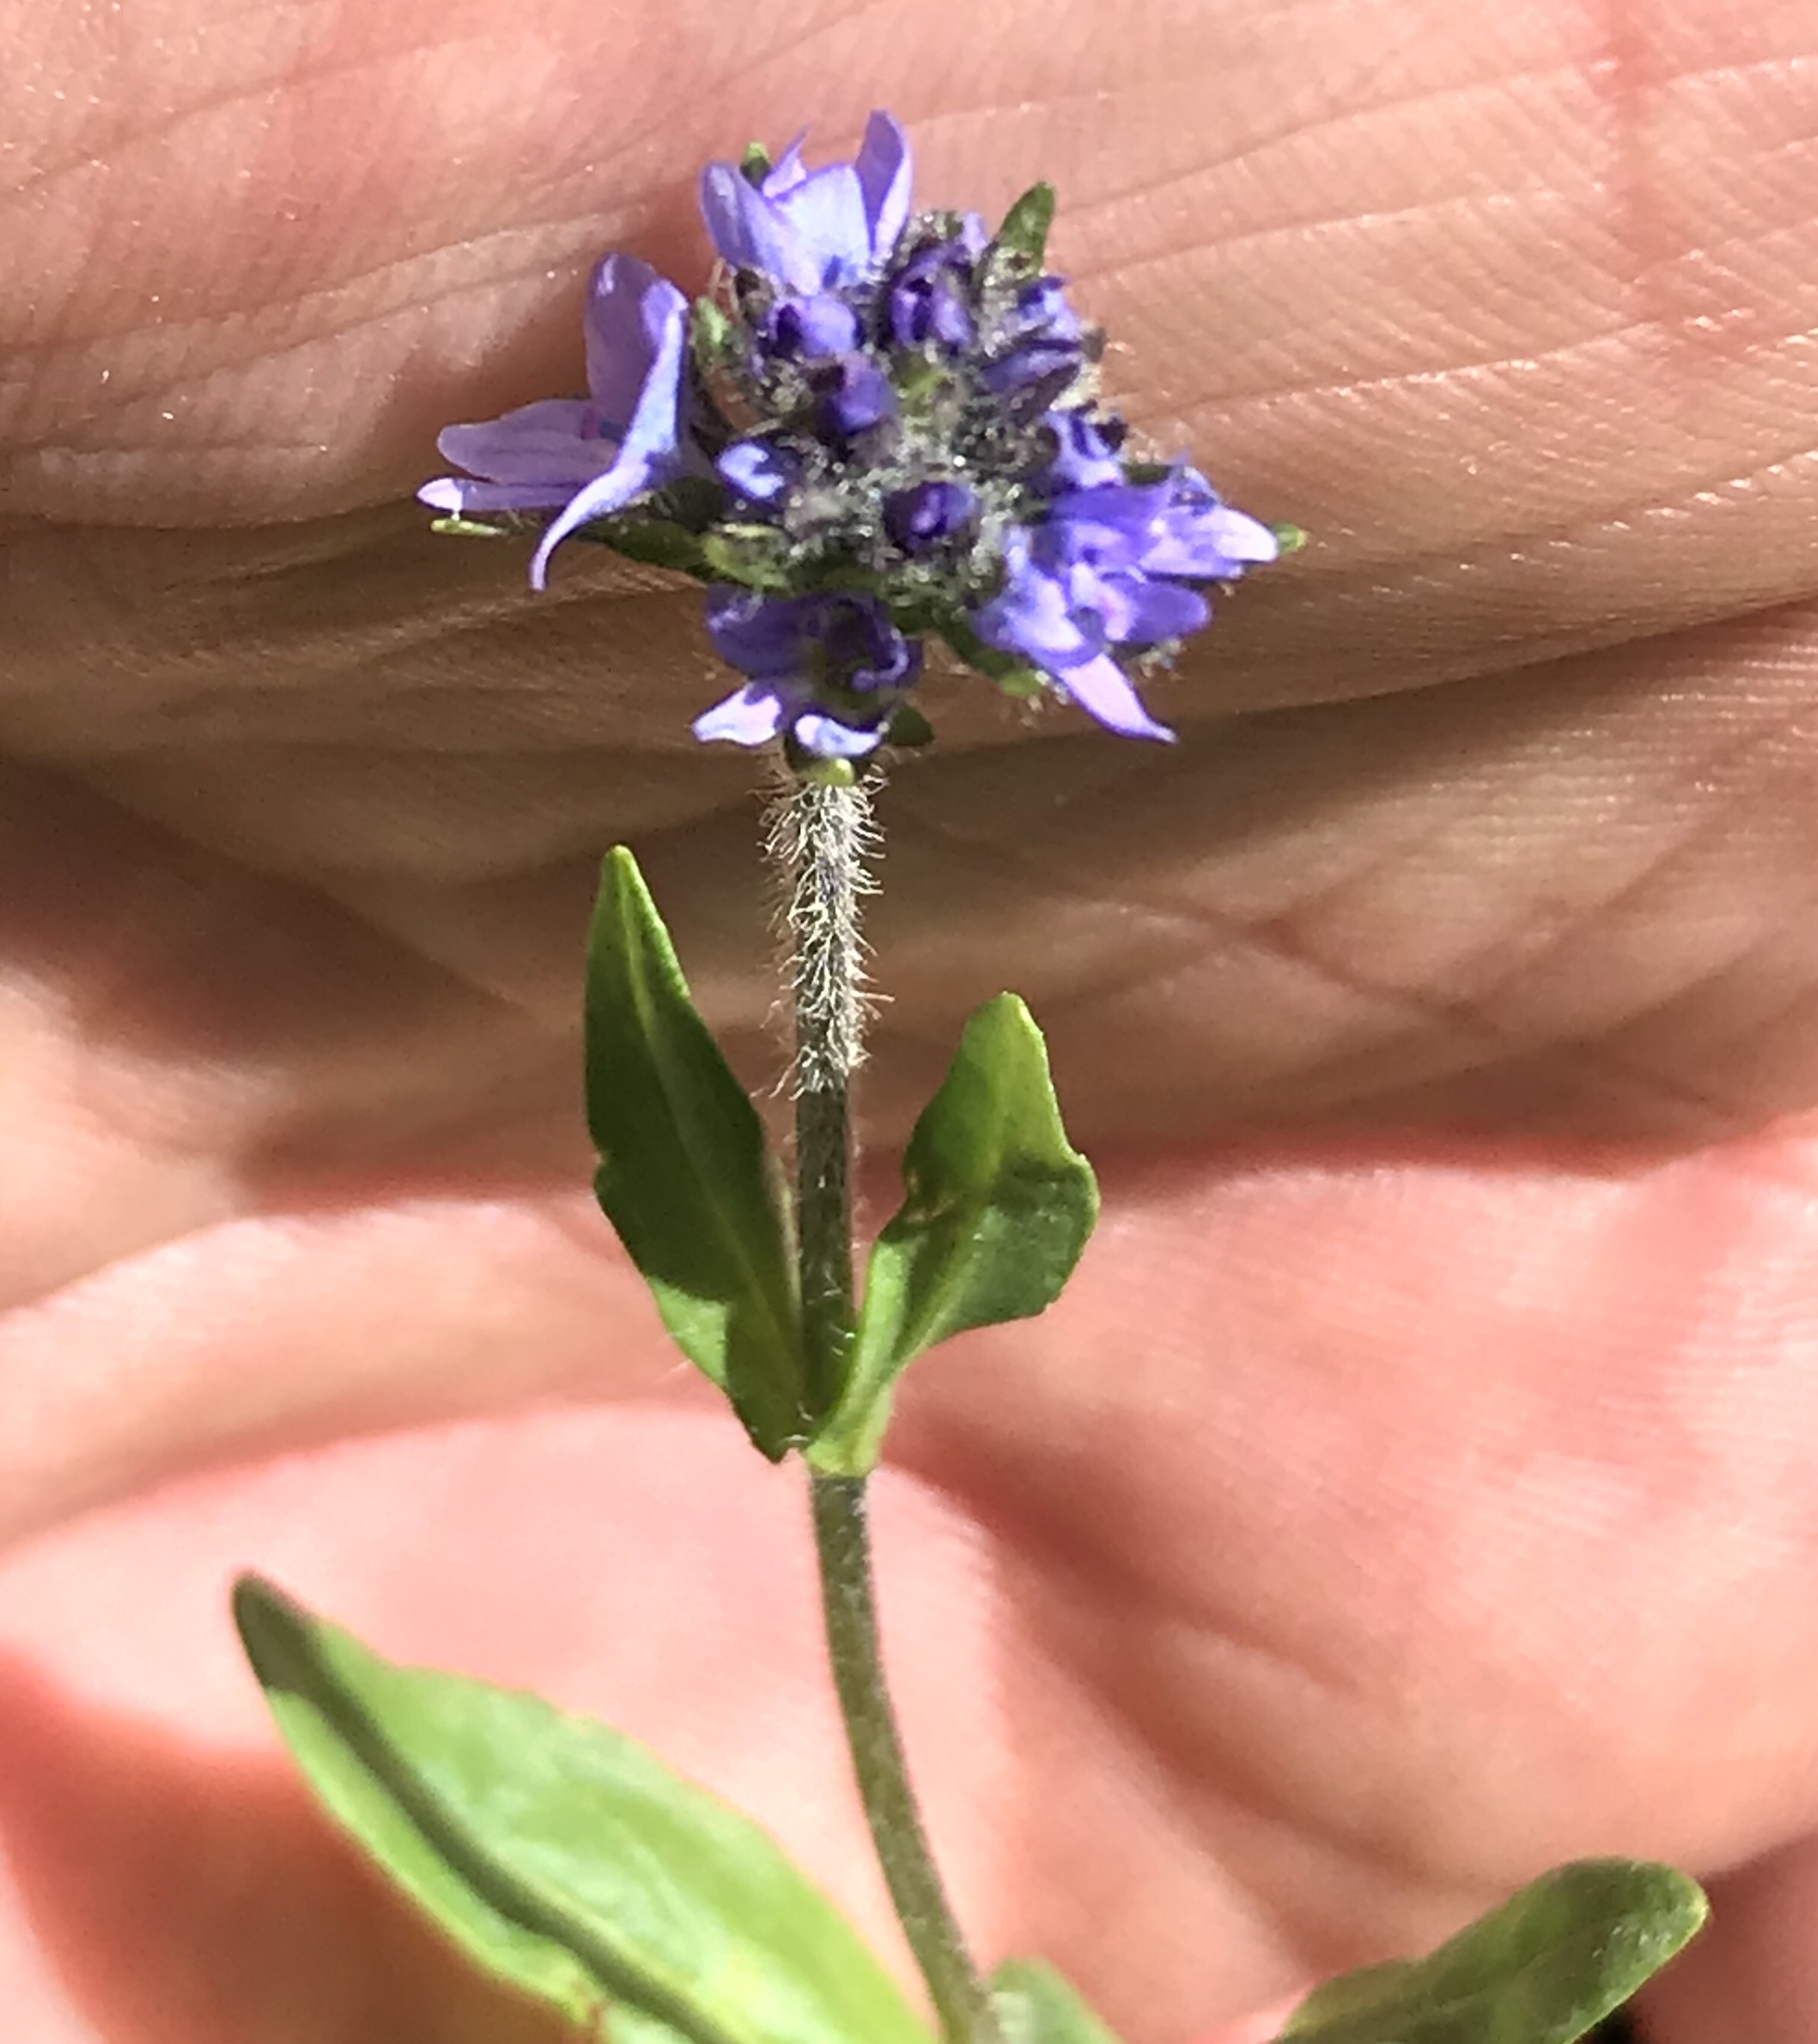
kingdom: Plantae
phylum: Tracheophyta
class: Magnoliopsida
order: Lamiales
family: Plantaginaceae
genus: Veronica
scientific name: Veronica wormskjoldii
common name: American alpine speedwell
